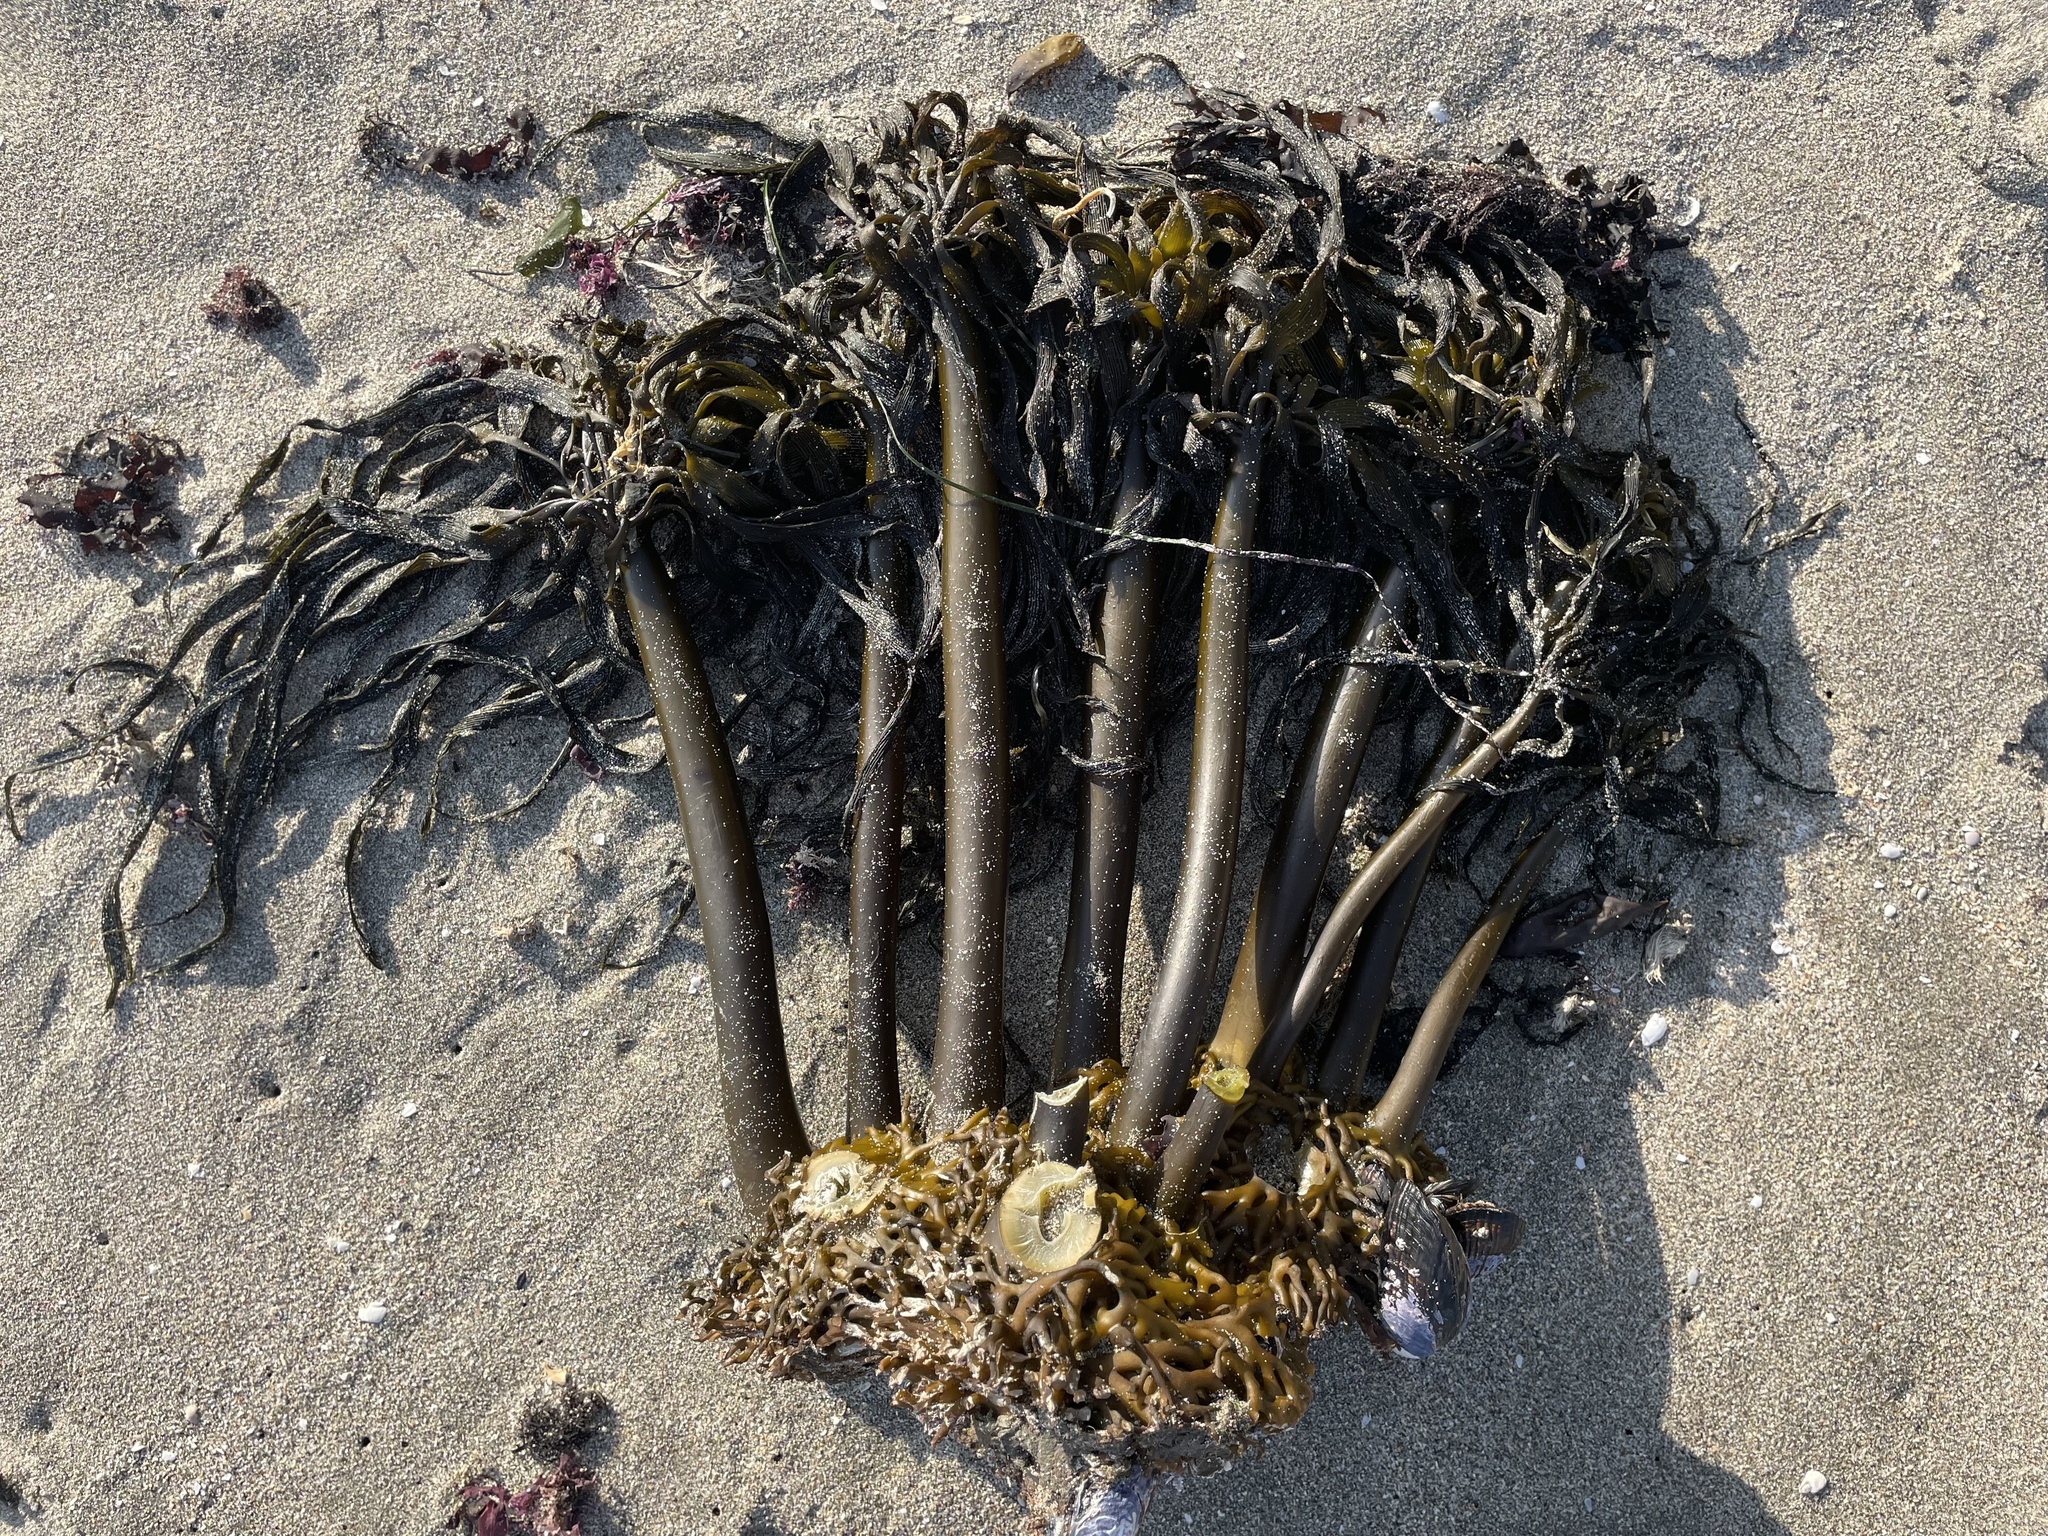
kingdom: Chromista
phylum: Ochrophyta
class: Phaeophyceae
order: Laminariales
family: Laminariaceae
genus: Postelsia
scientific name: Postelsia palmiformis
